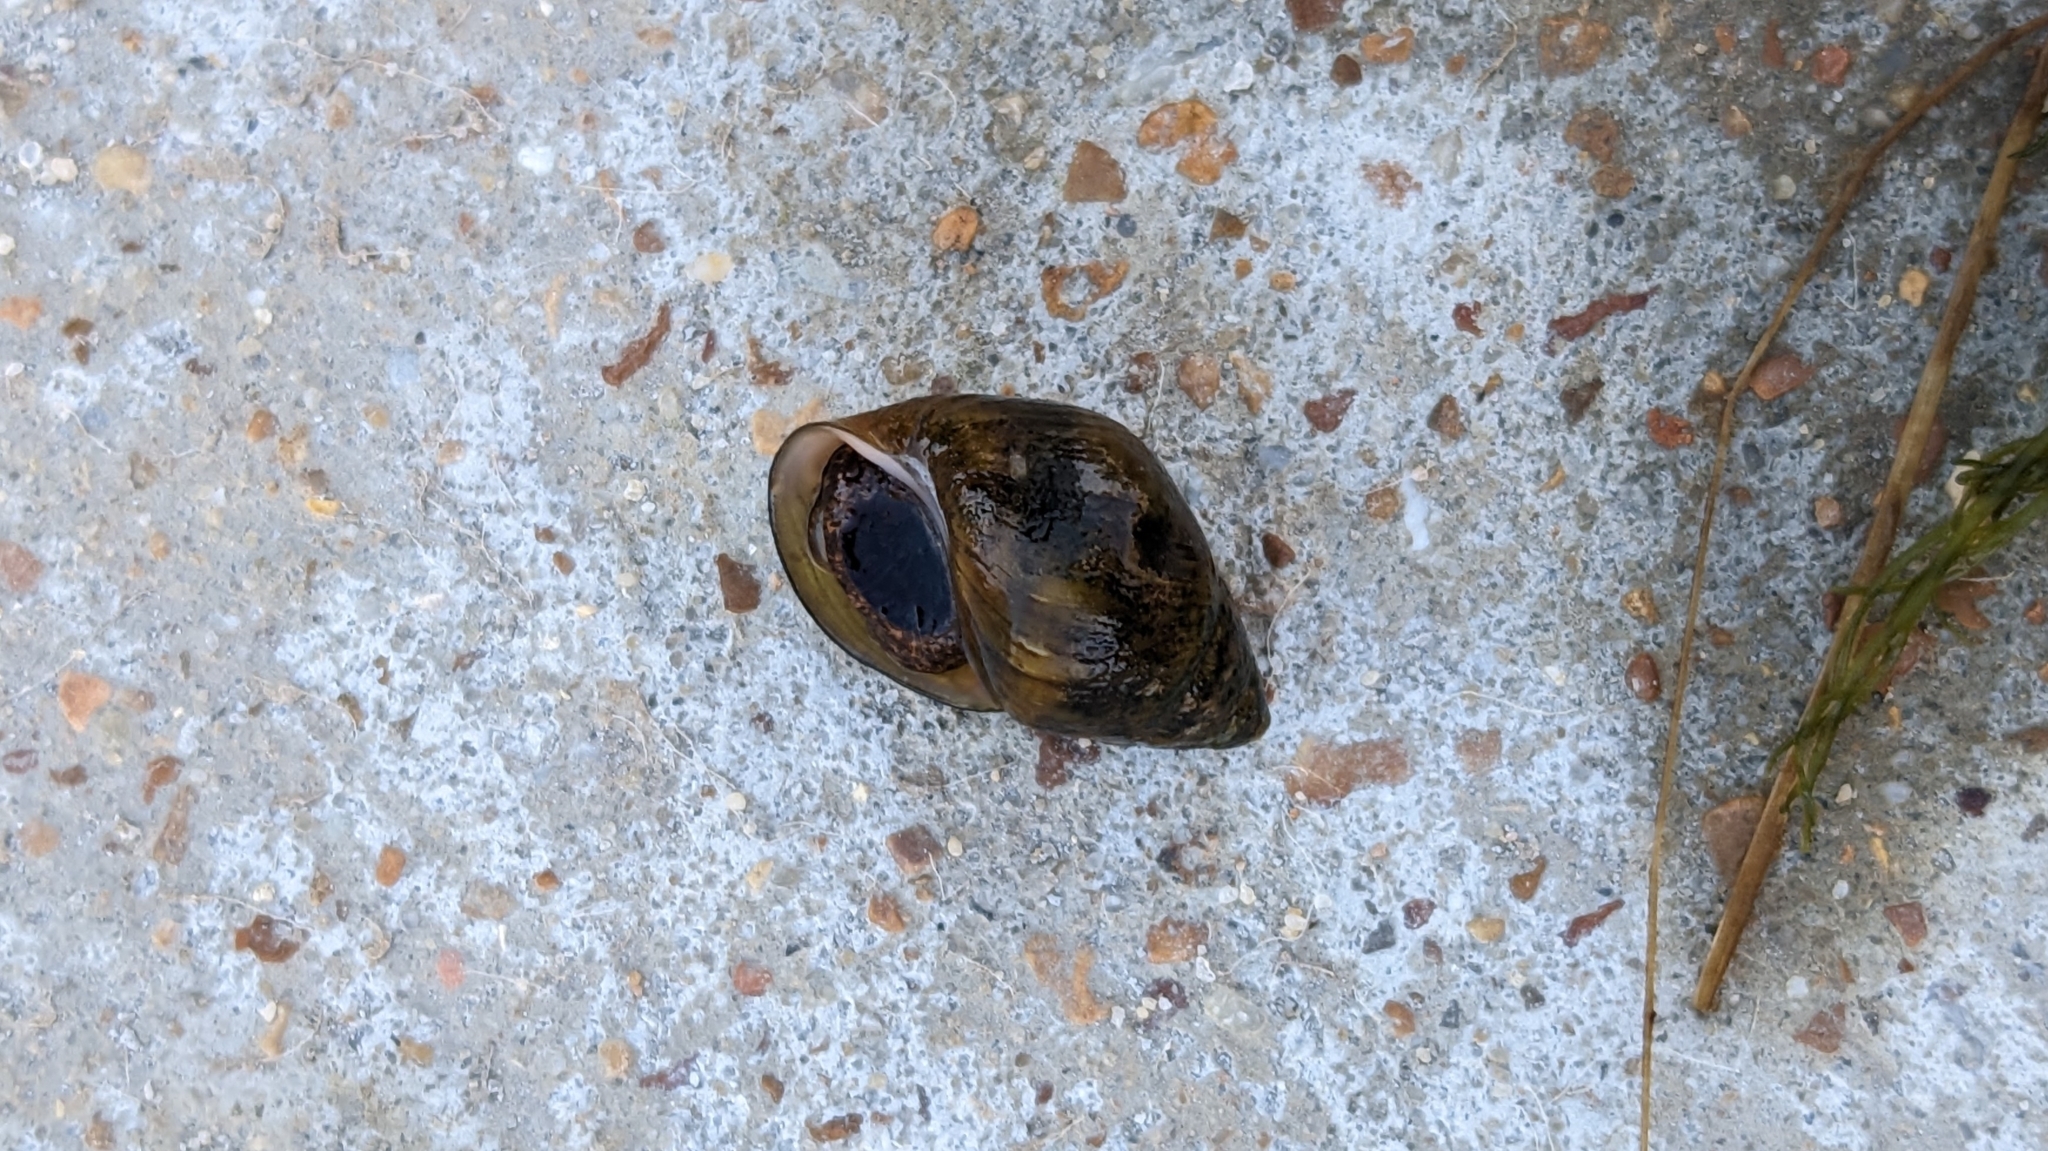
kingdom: Animalia
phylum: Mollusca
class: Gastropoda
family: Pleuroceridae
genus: Lithasia
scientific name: Lithasia bubala
